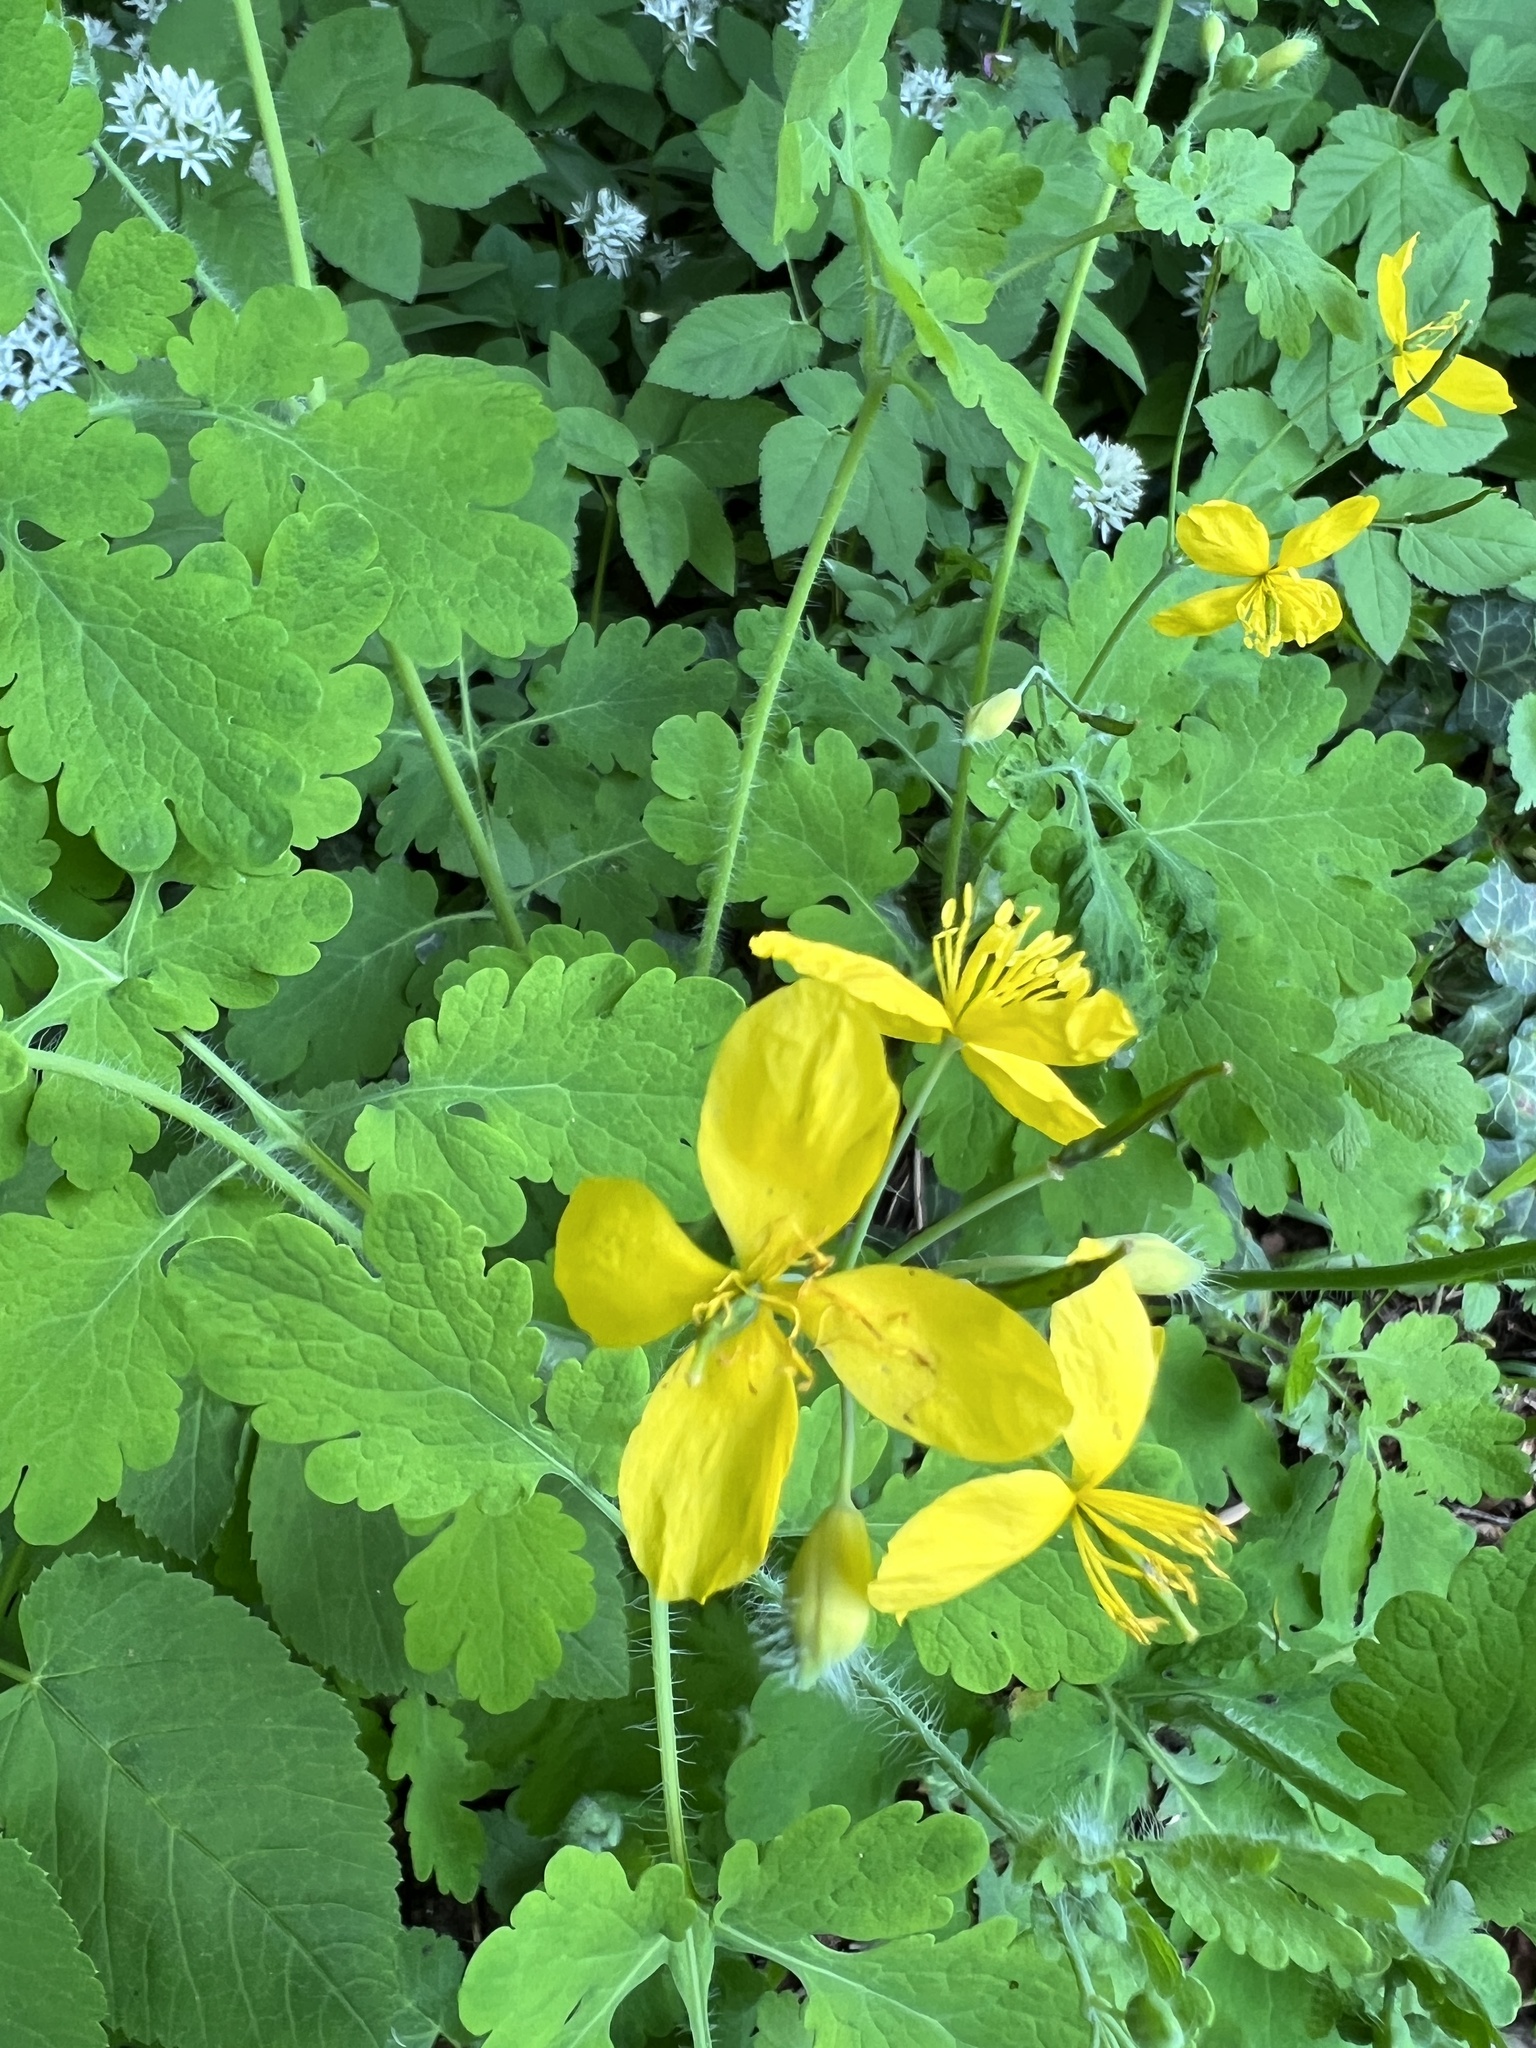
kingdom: Plantae
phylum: Tracheophyta
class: Magnoliopsida
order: Ranunculales
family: Papaveraceae
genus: Chelidonium
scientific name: Chelidonium majus
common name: Greater celandine
